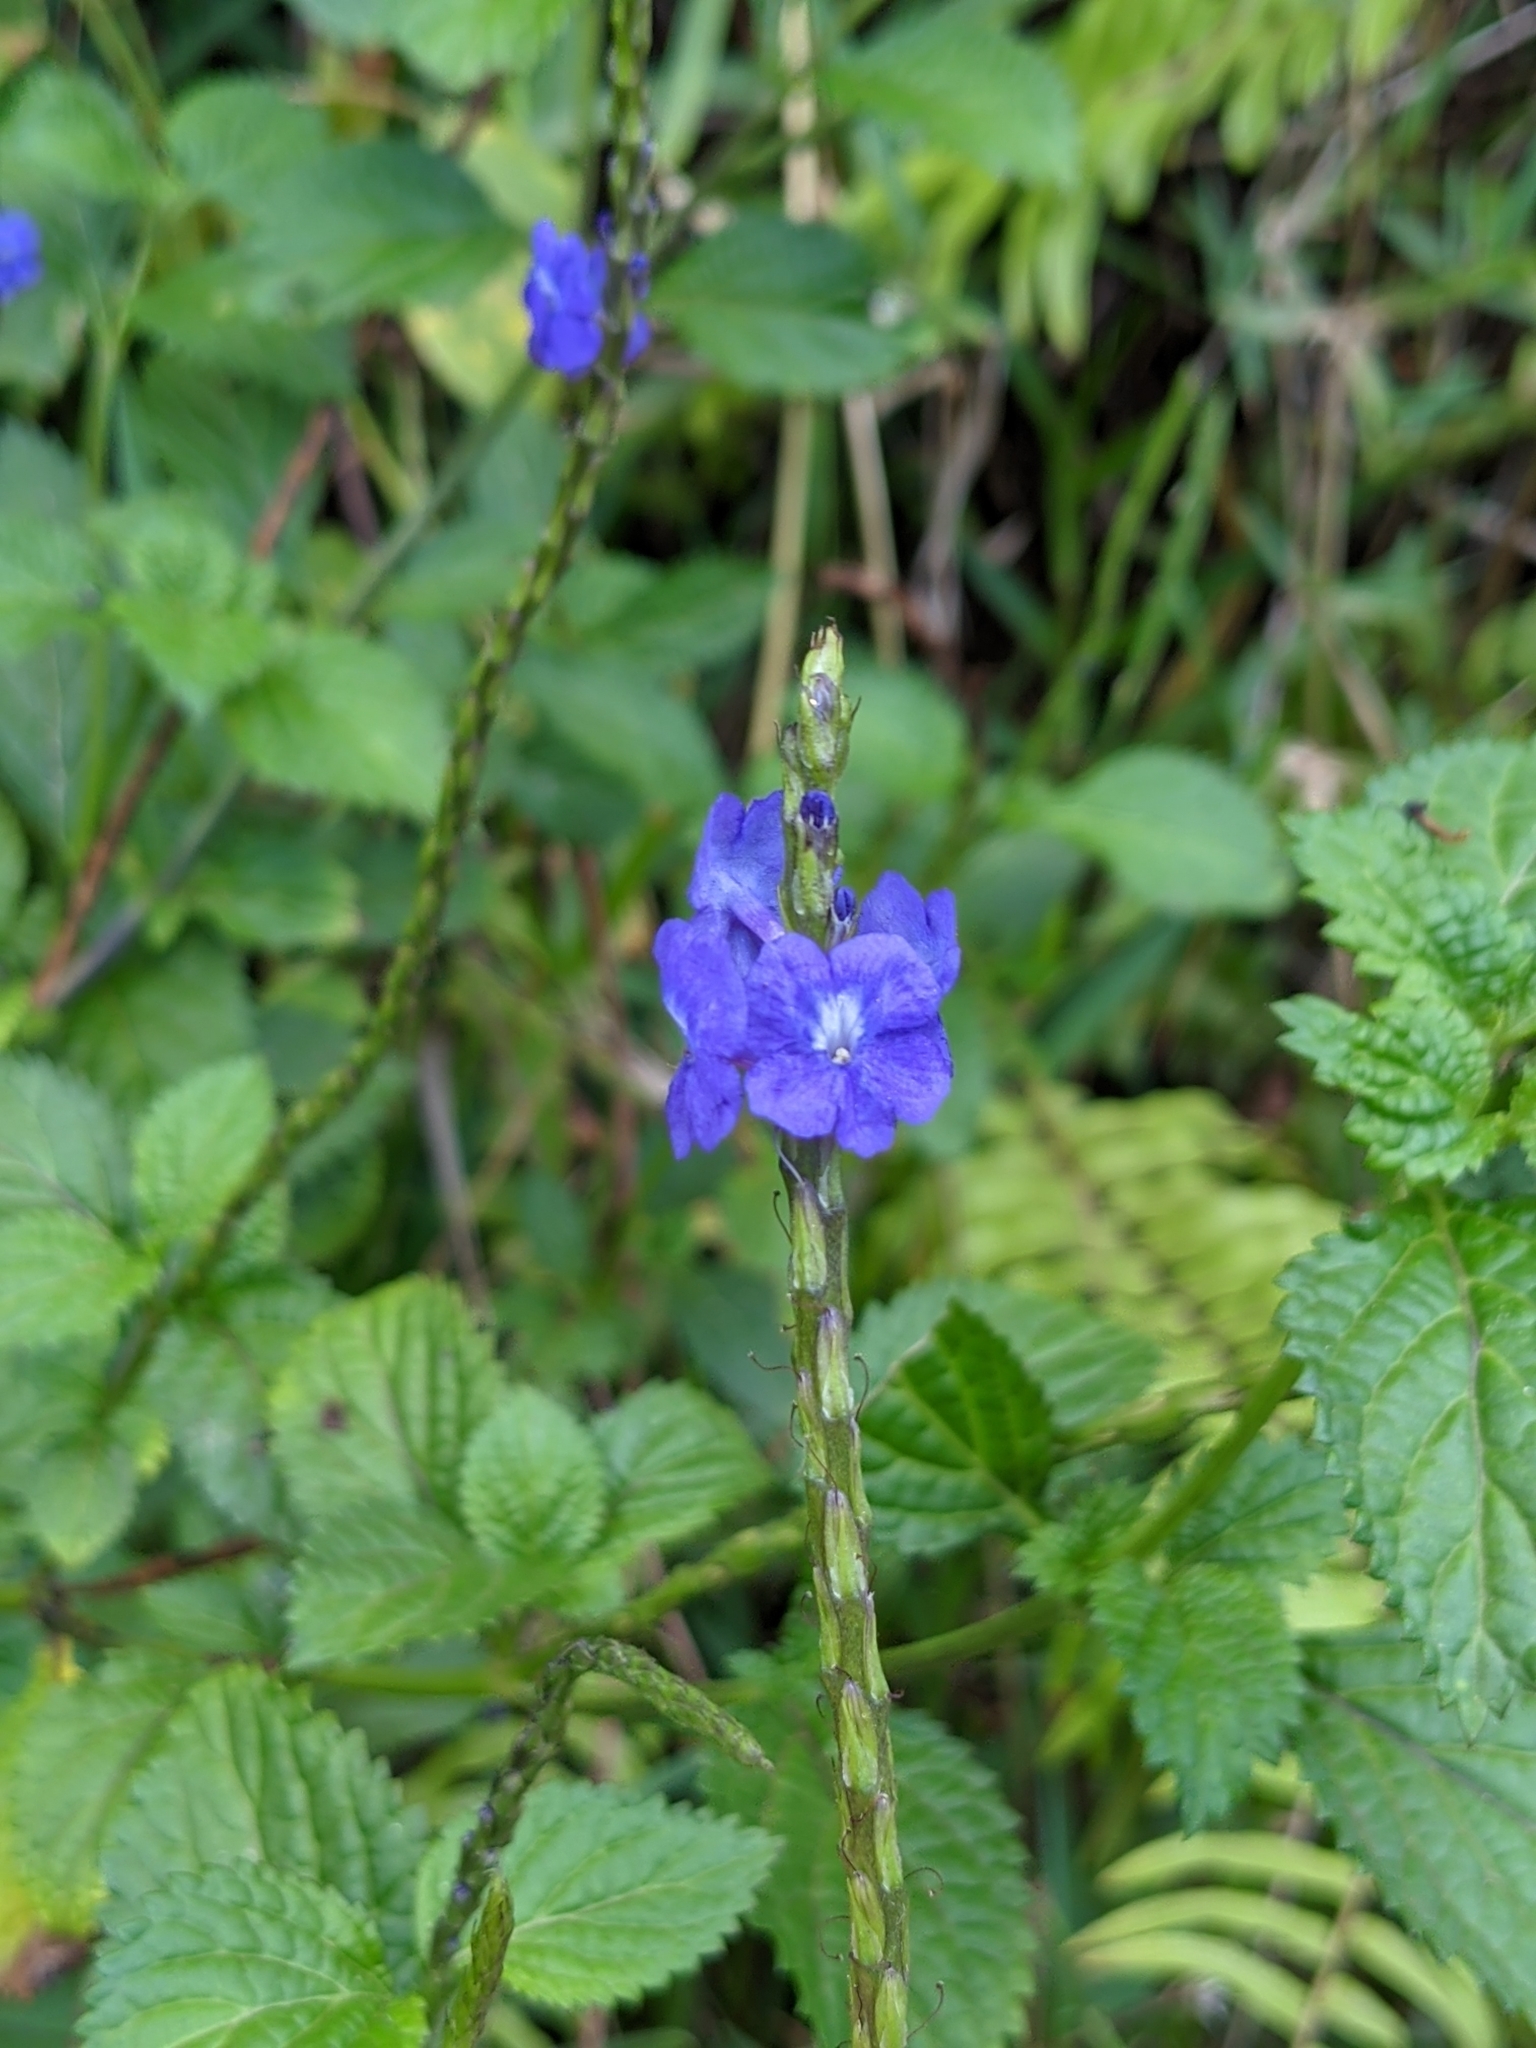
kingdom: Plantae
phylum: Tracheophyta
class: Magnoliopsida
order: Lamiales
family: Verbenaceae
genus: Stachytarpheta
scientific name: Stachytarpheta cayennensis
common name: Cayenne porterweed
